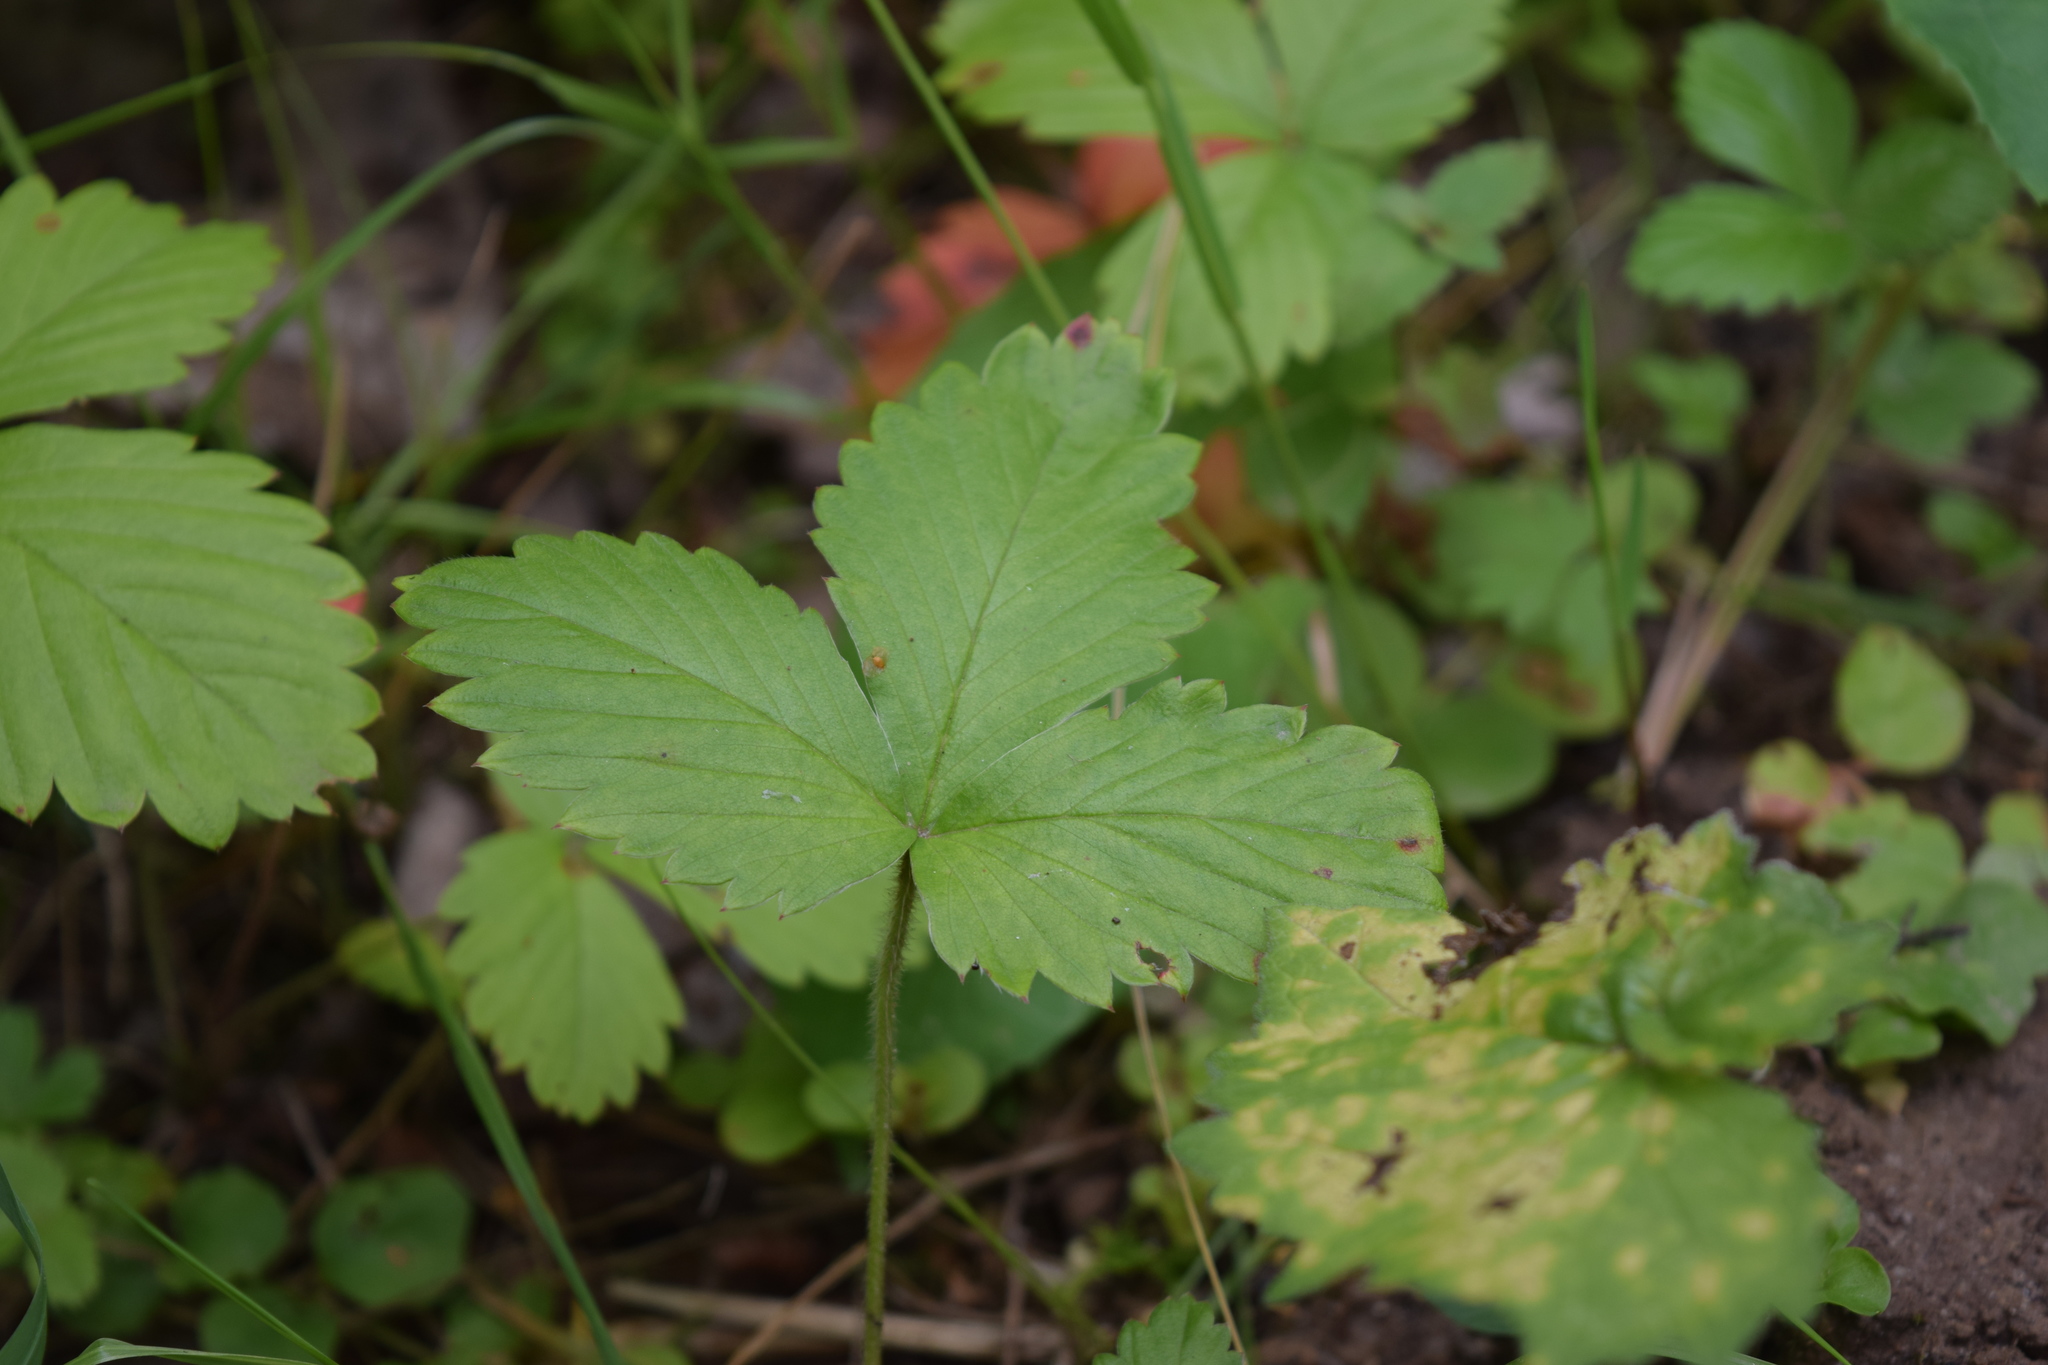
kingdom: Plantae
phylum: Tracheophyta
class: Magnoliopsida
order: Rosales
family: Rosaceae
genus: Fragaria
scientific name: Fragaria vesca
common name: Wild strawberry
